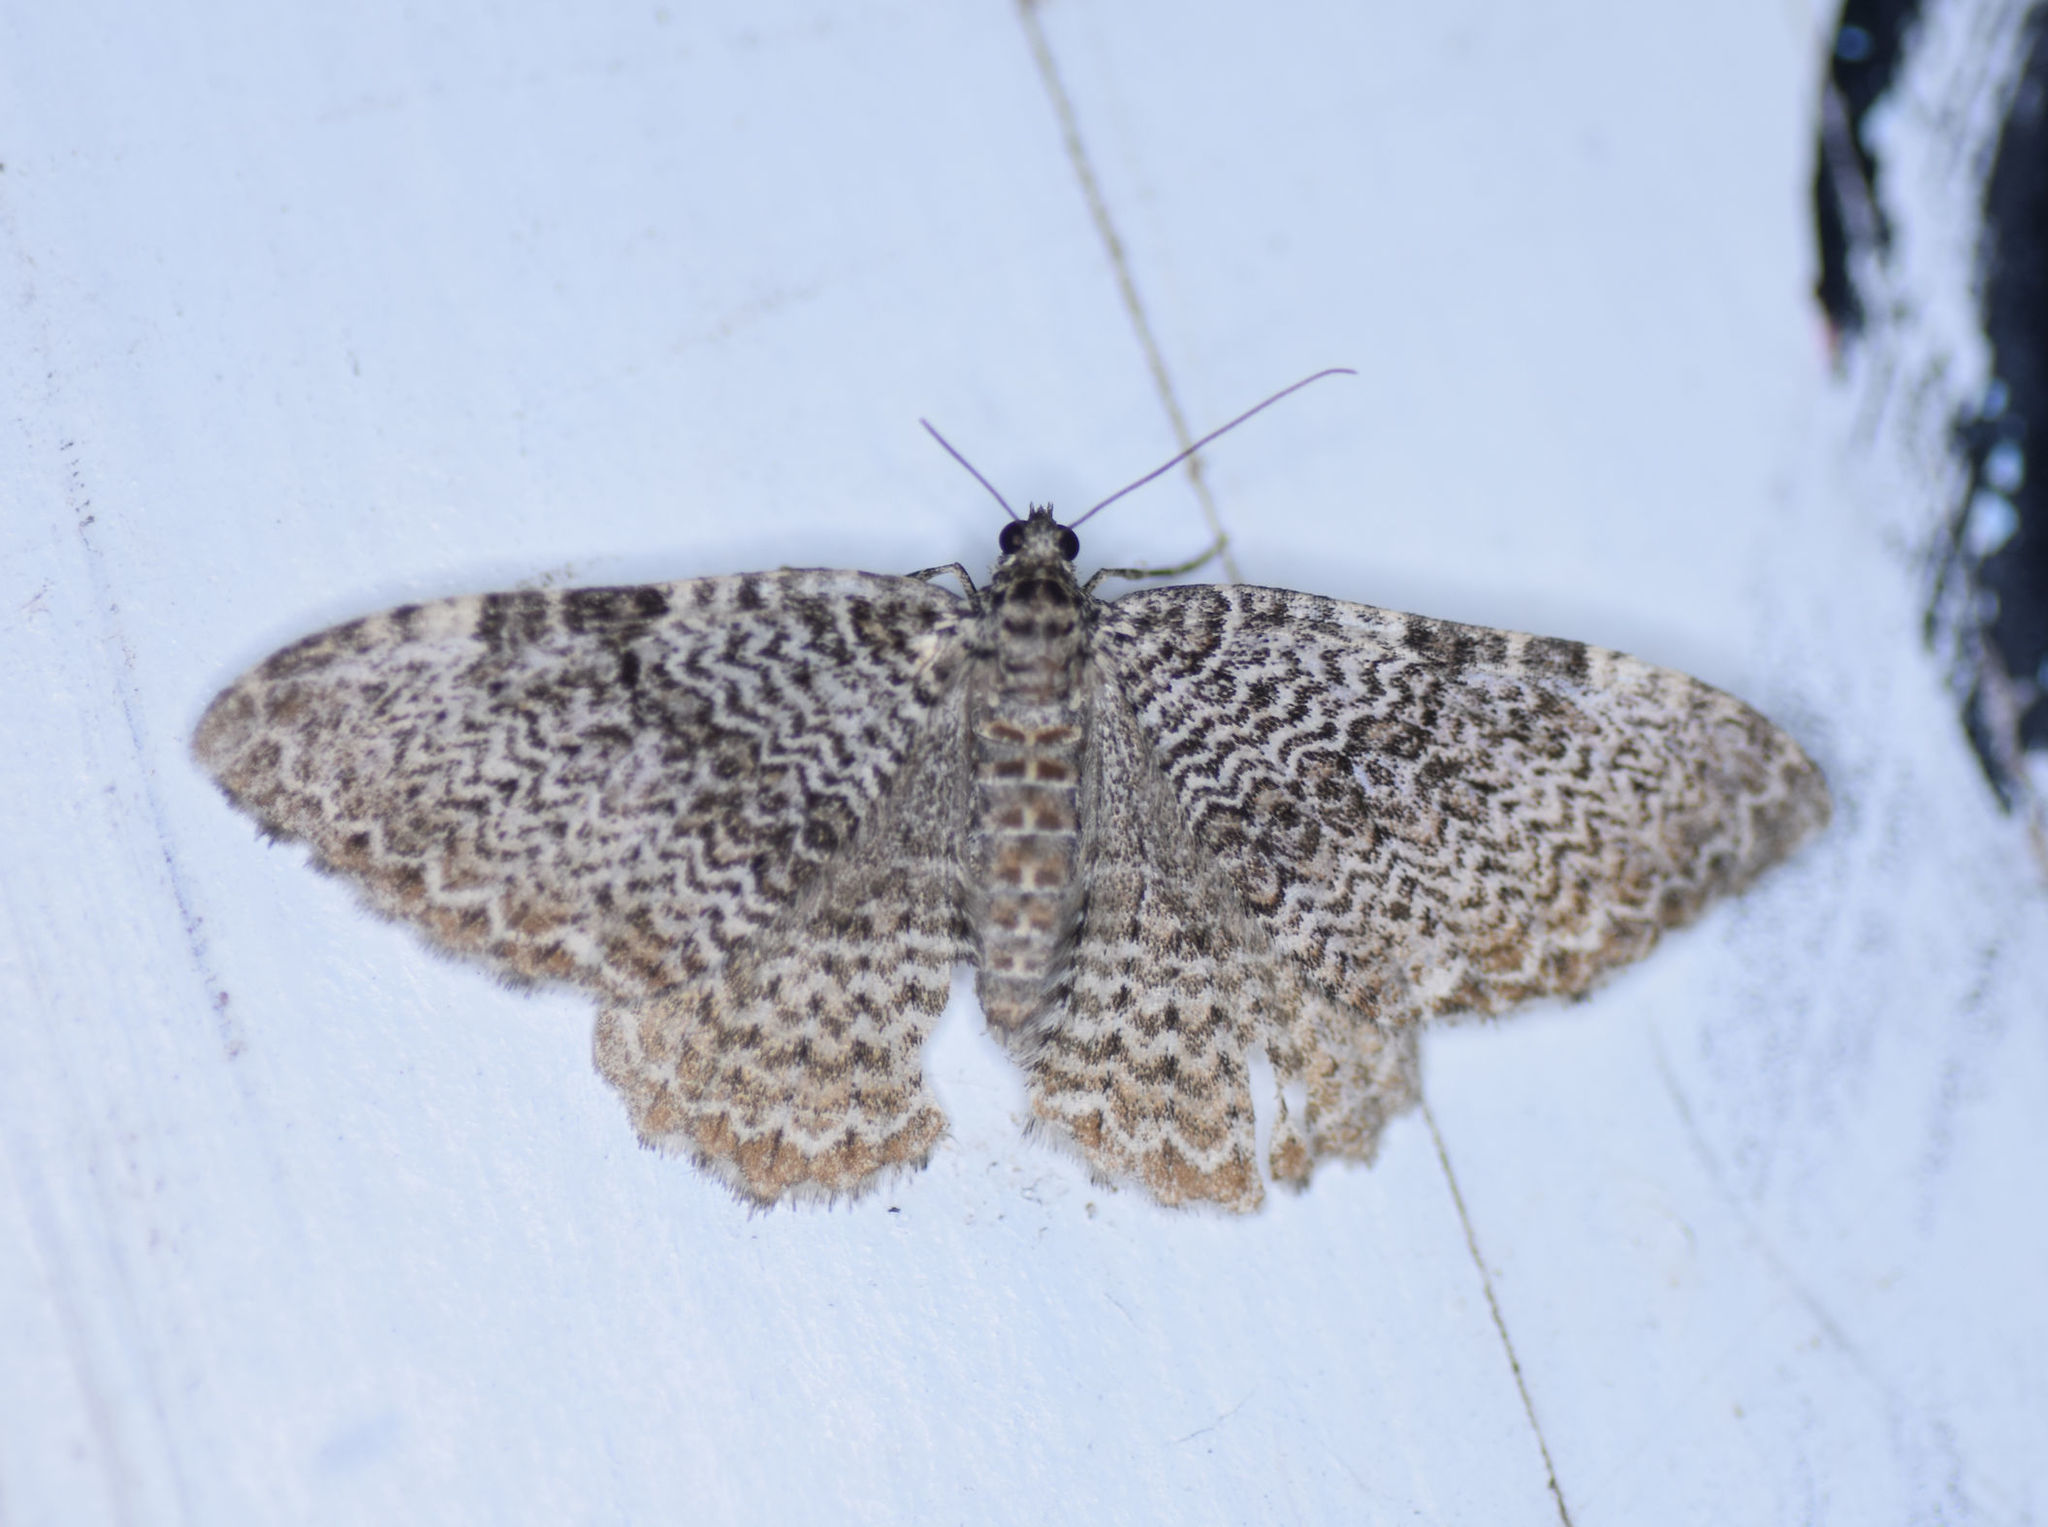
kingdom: Animalia
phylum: Arthropoda
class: Insecta
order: Lepidoptera
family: Geometridae
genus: Rheumaptera
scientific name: Rheumaptera prunivorata
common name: Cherry scallop shell moth
